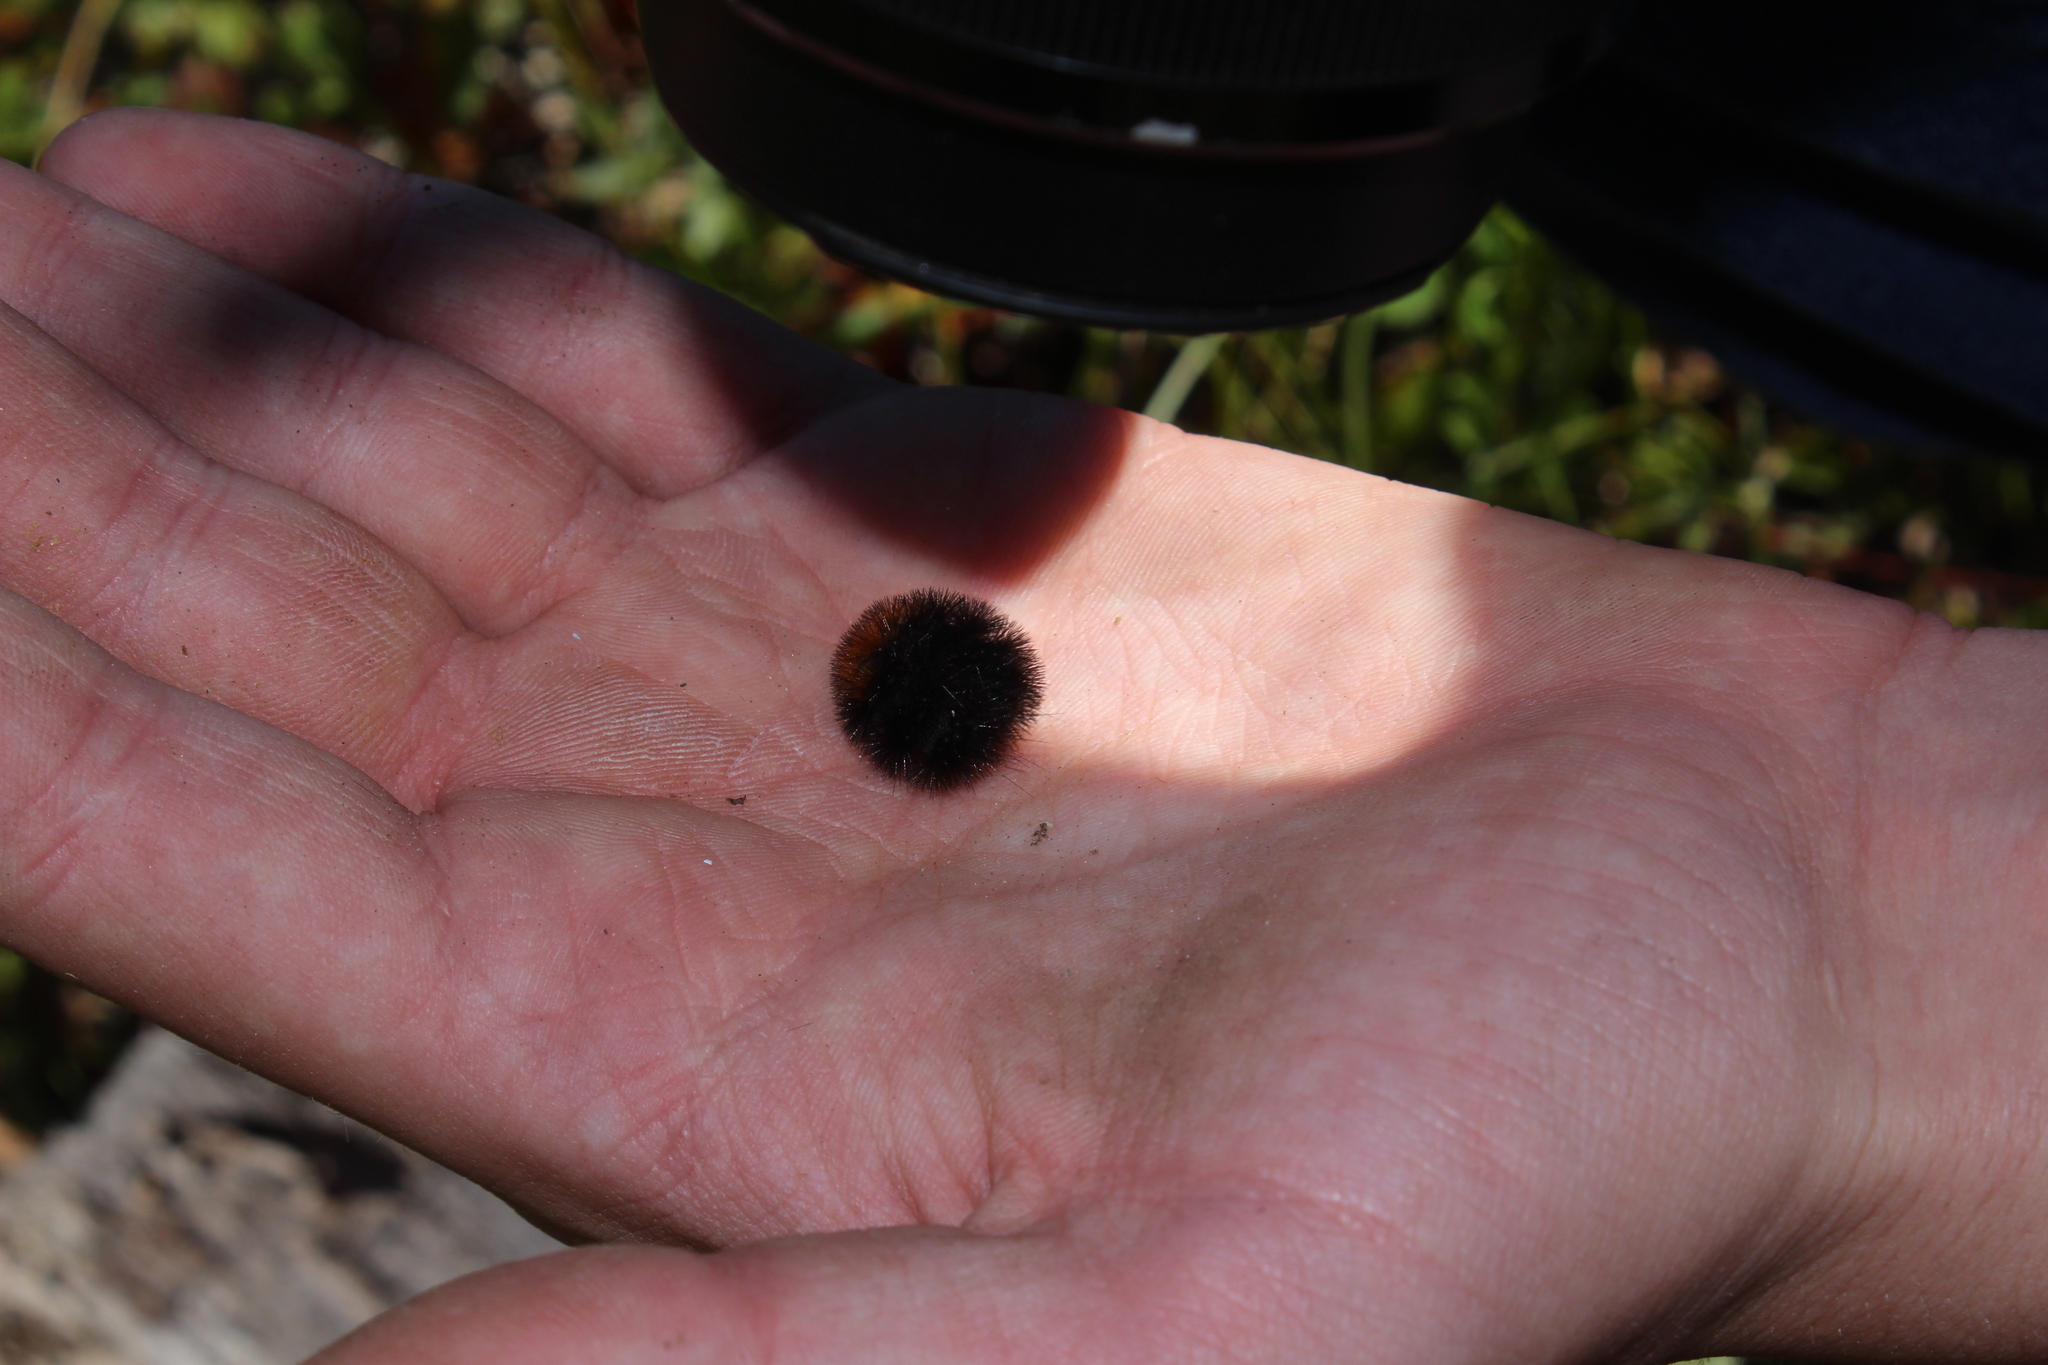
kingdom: Animalia
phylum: Arthropoda
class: Insecta
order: Lepidoptera
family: Erebidae
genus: Pyrrharctia
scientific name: Pyrrharctia isabella
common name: Isabella tiger moth
